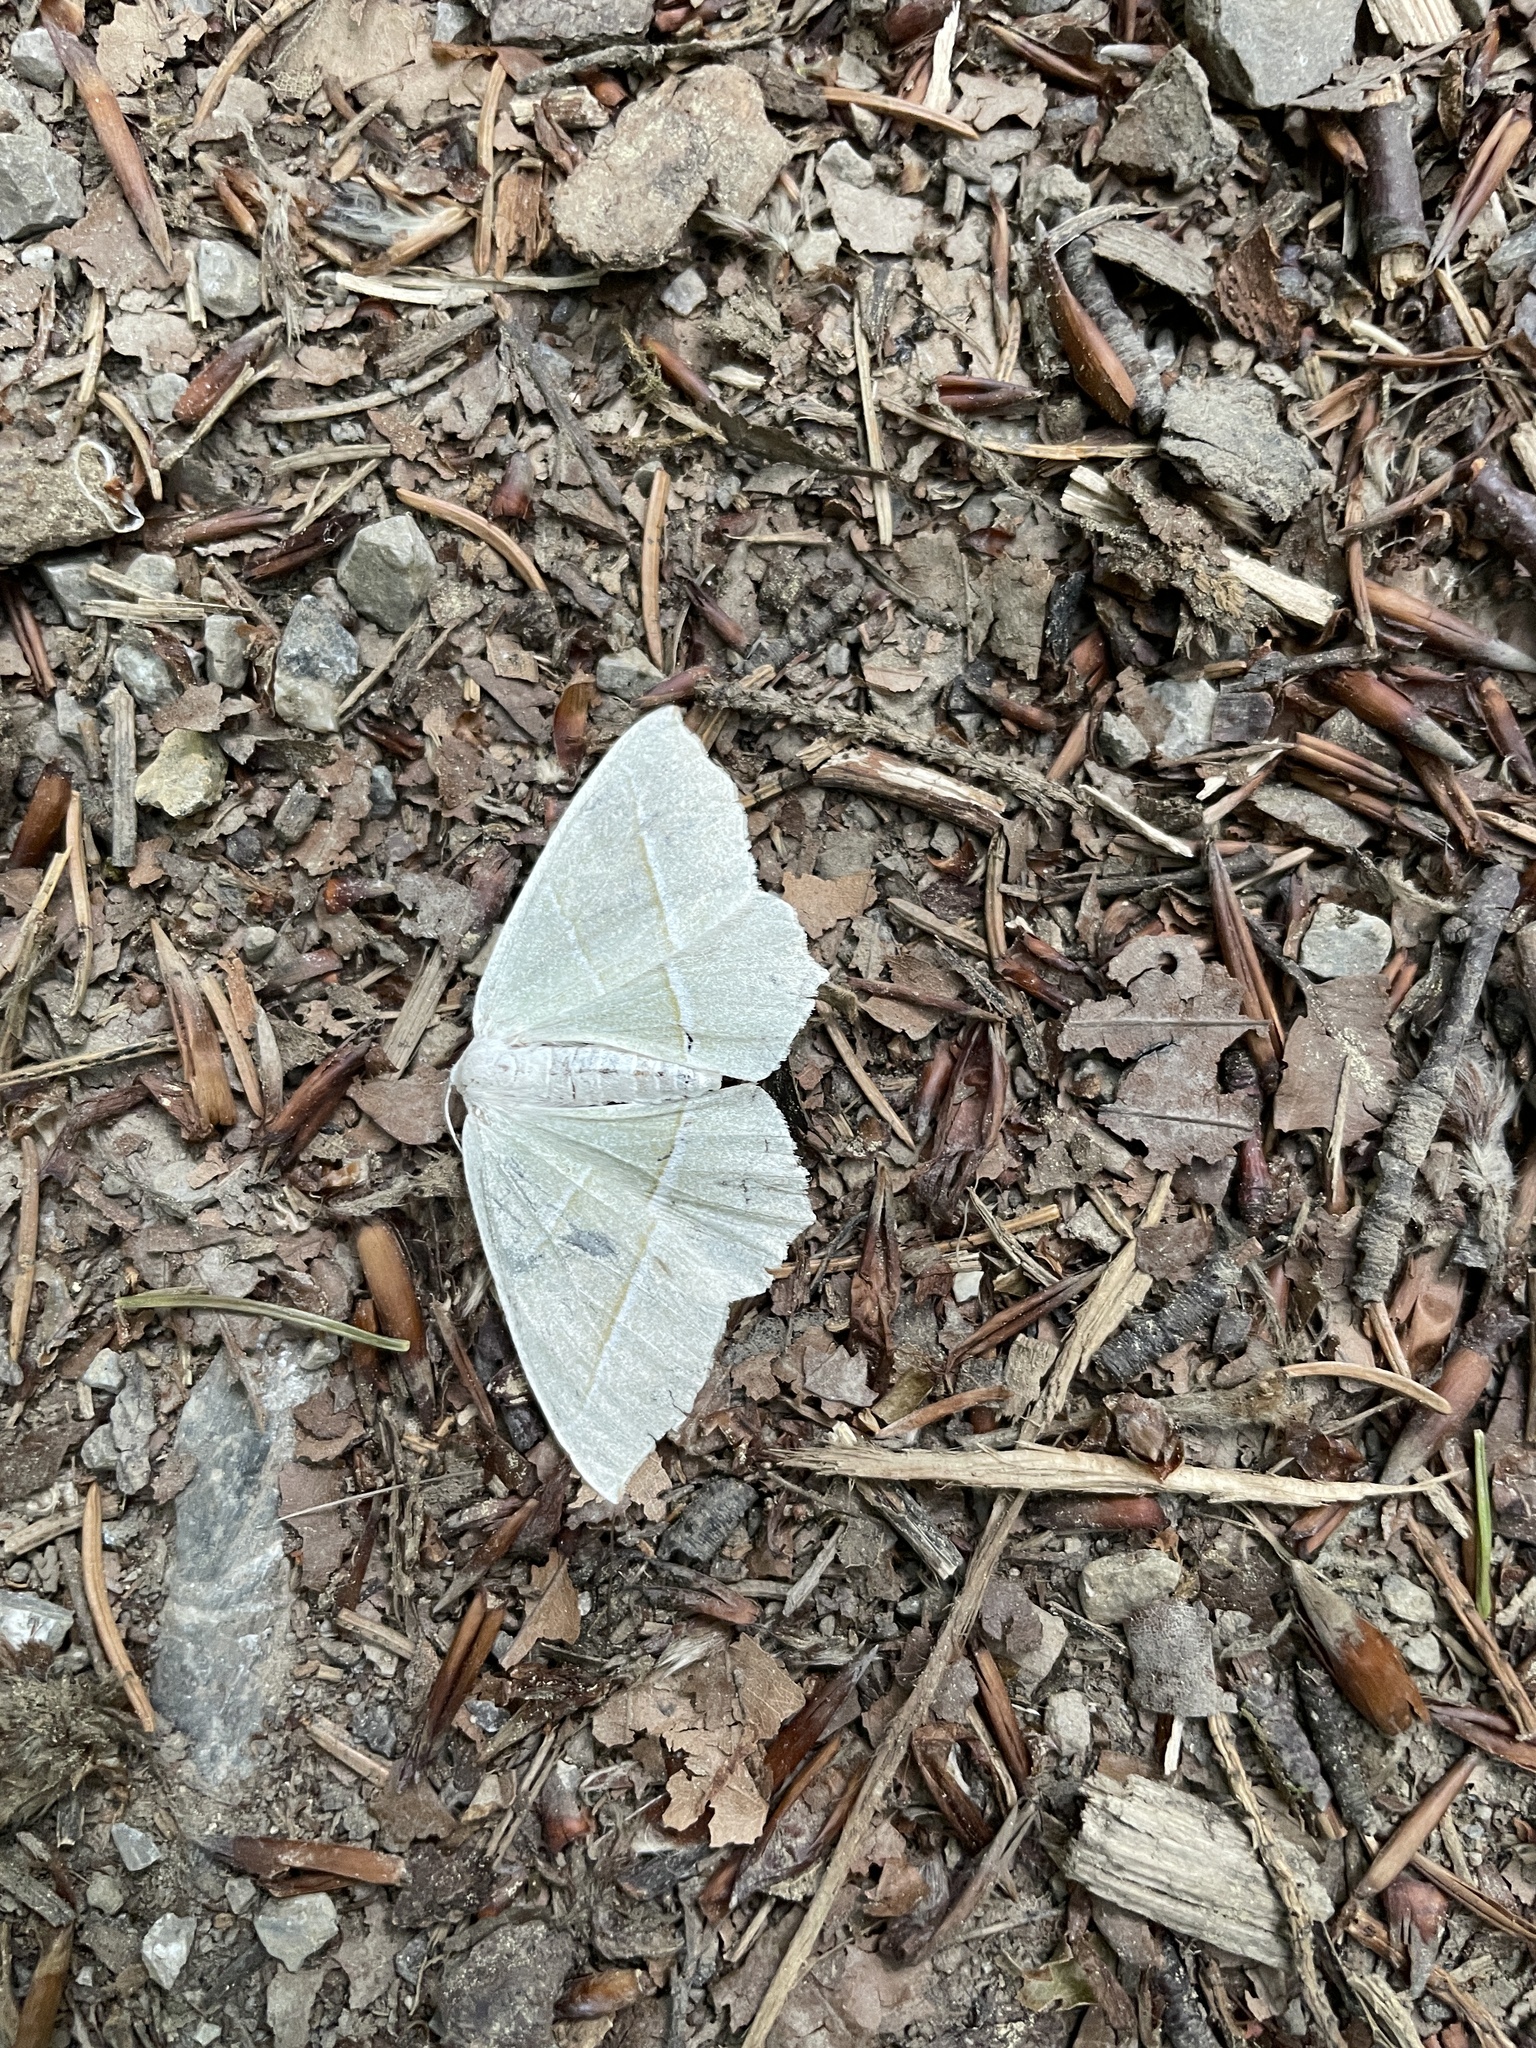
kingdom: Animalia
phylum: Arthropoda
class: Insecta
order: Lepidoptera
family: Geometridae
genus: Campaea
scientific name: Campaea margaritaria
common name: Light emerald
